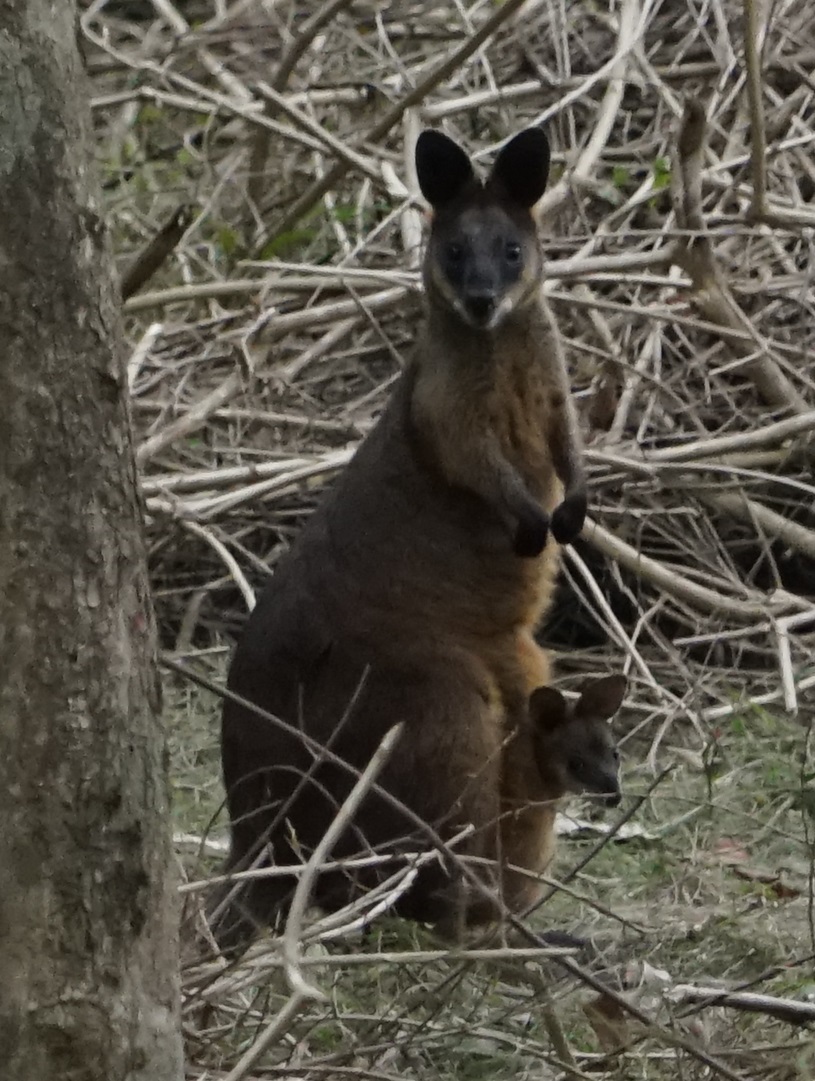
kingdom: Animalia
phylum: Chordata
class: Mammalia
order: Diprotodontia
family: Macropodidae
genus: Wallabia
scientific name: Wallabia bicolor
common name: Swamp wallaby
